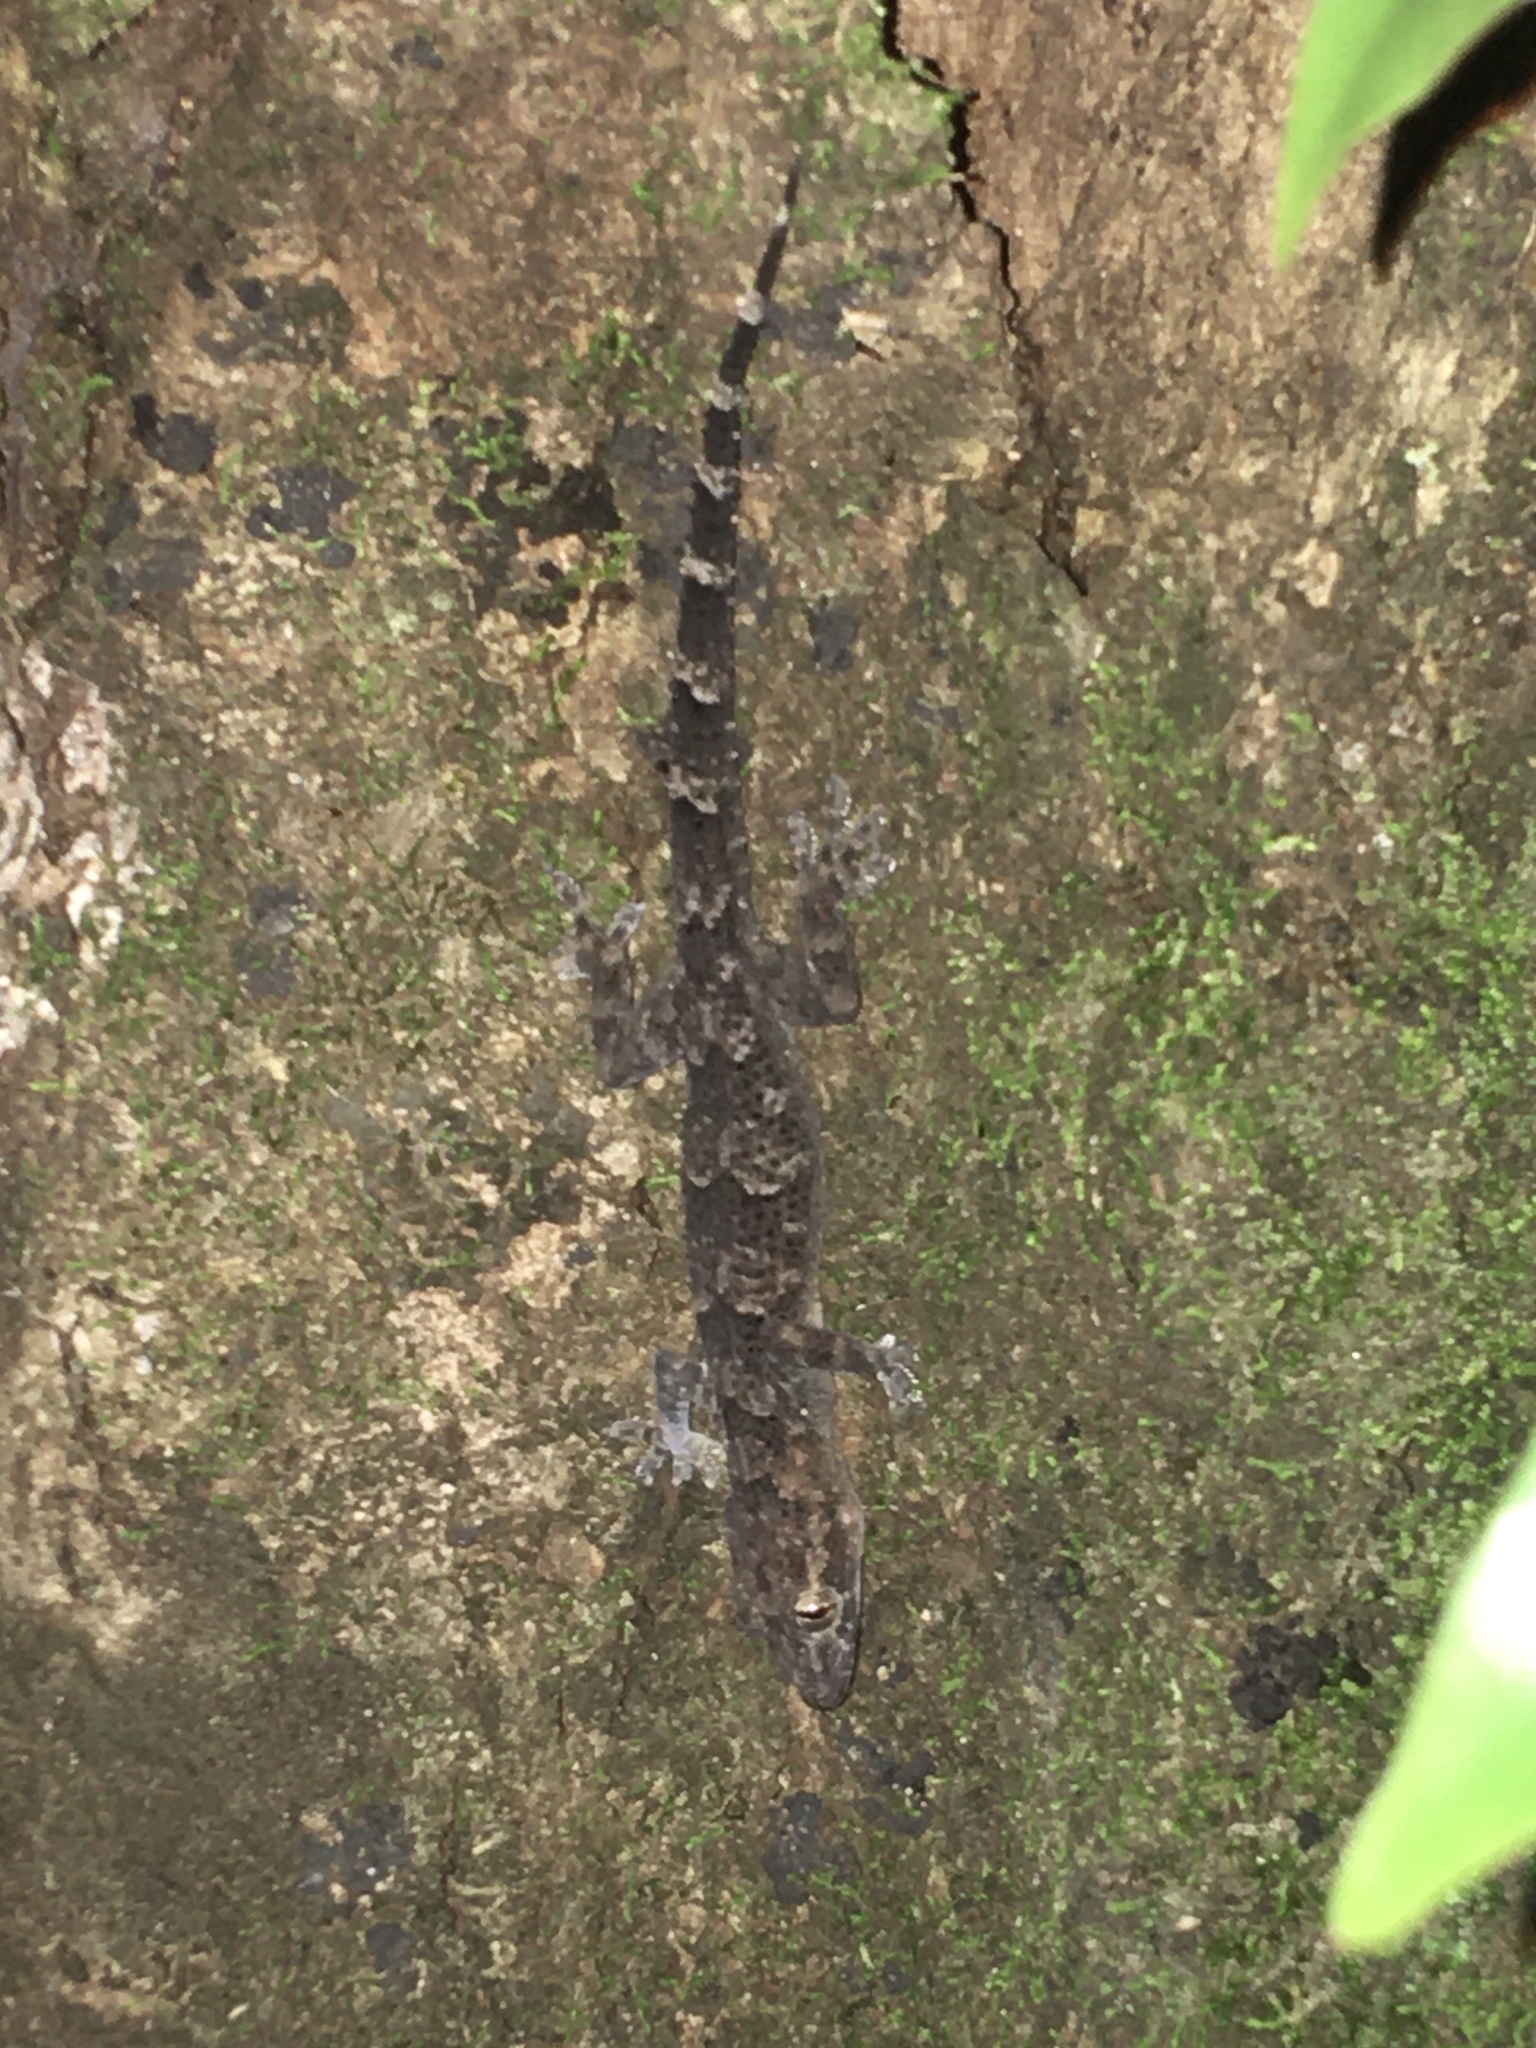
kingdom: Animalia
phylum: Chordata
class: Squamata
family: Gekkonidae
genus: Hemidactylus
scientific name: Hemidactylus mabouia
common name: House gecko
